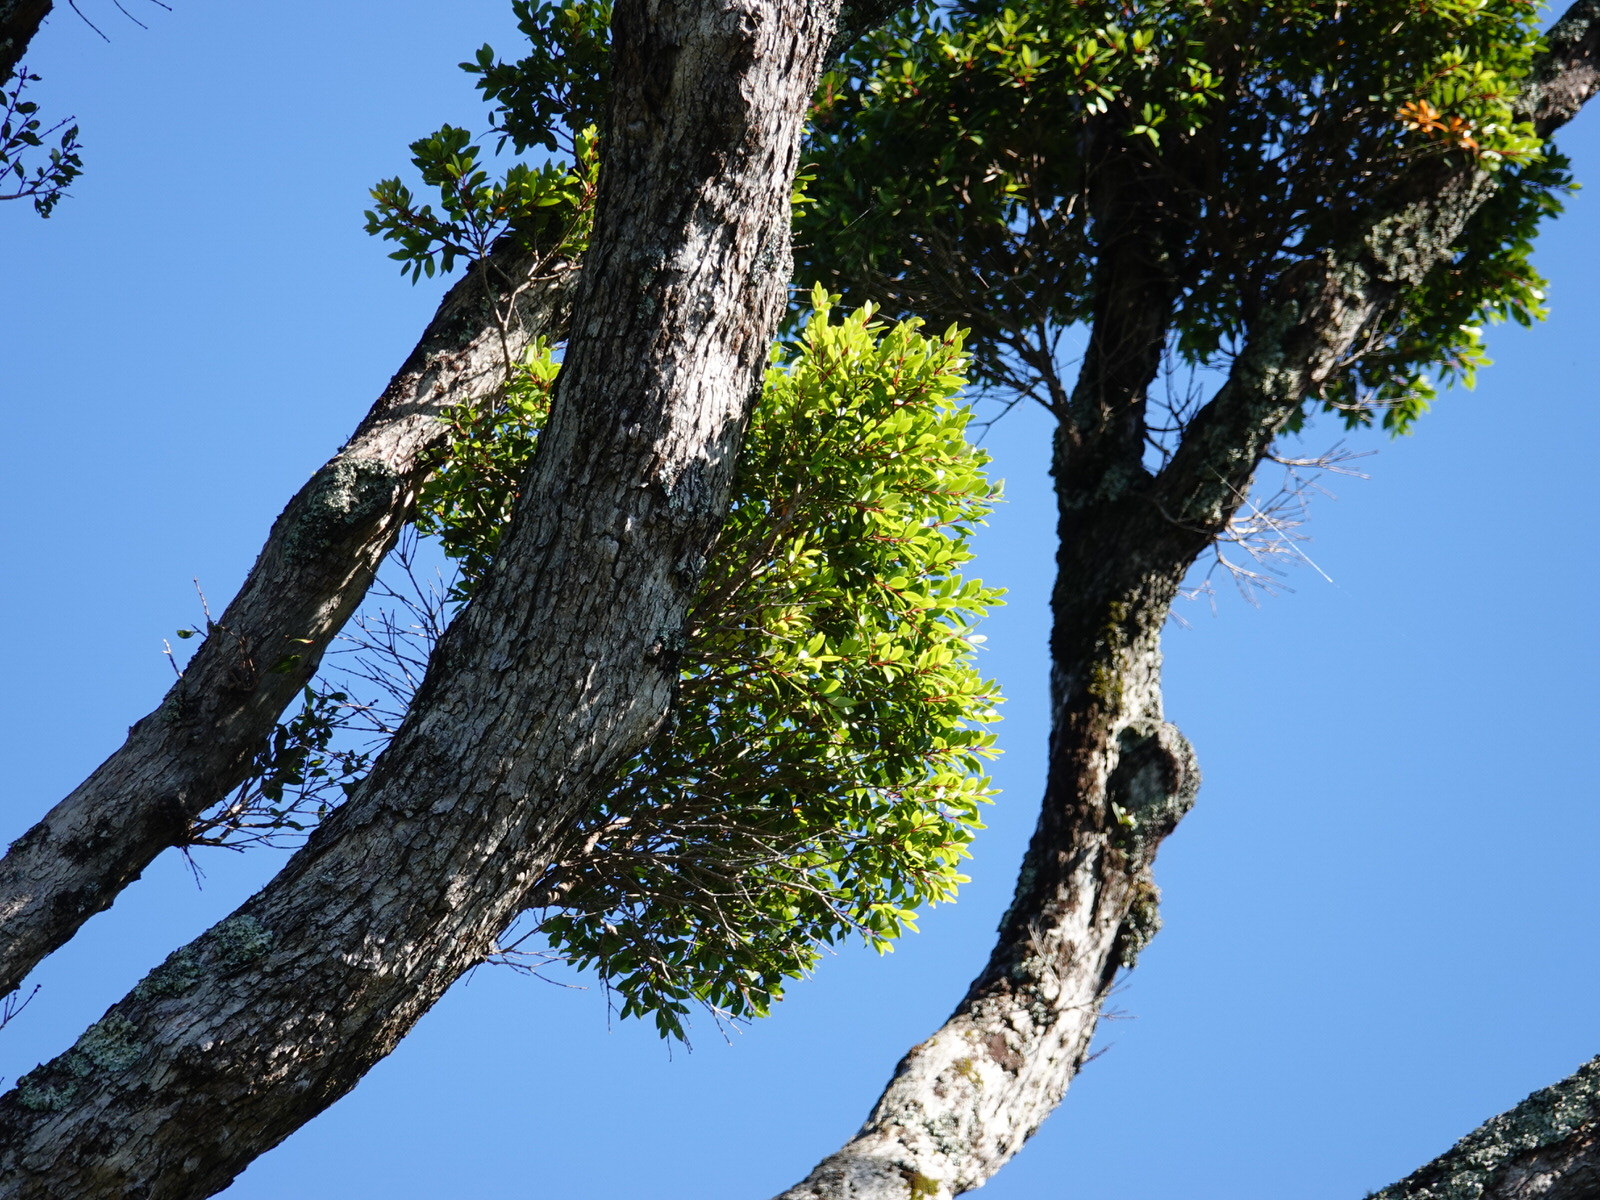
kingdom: Plantae
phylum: Tracheophyta
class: Magnoliopsida
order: Myrtales
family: Myrtaceae
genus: Metrosideros
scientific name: Metrosideros robusta
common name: Northern rata
